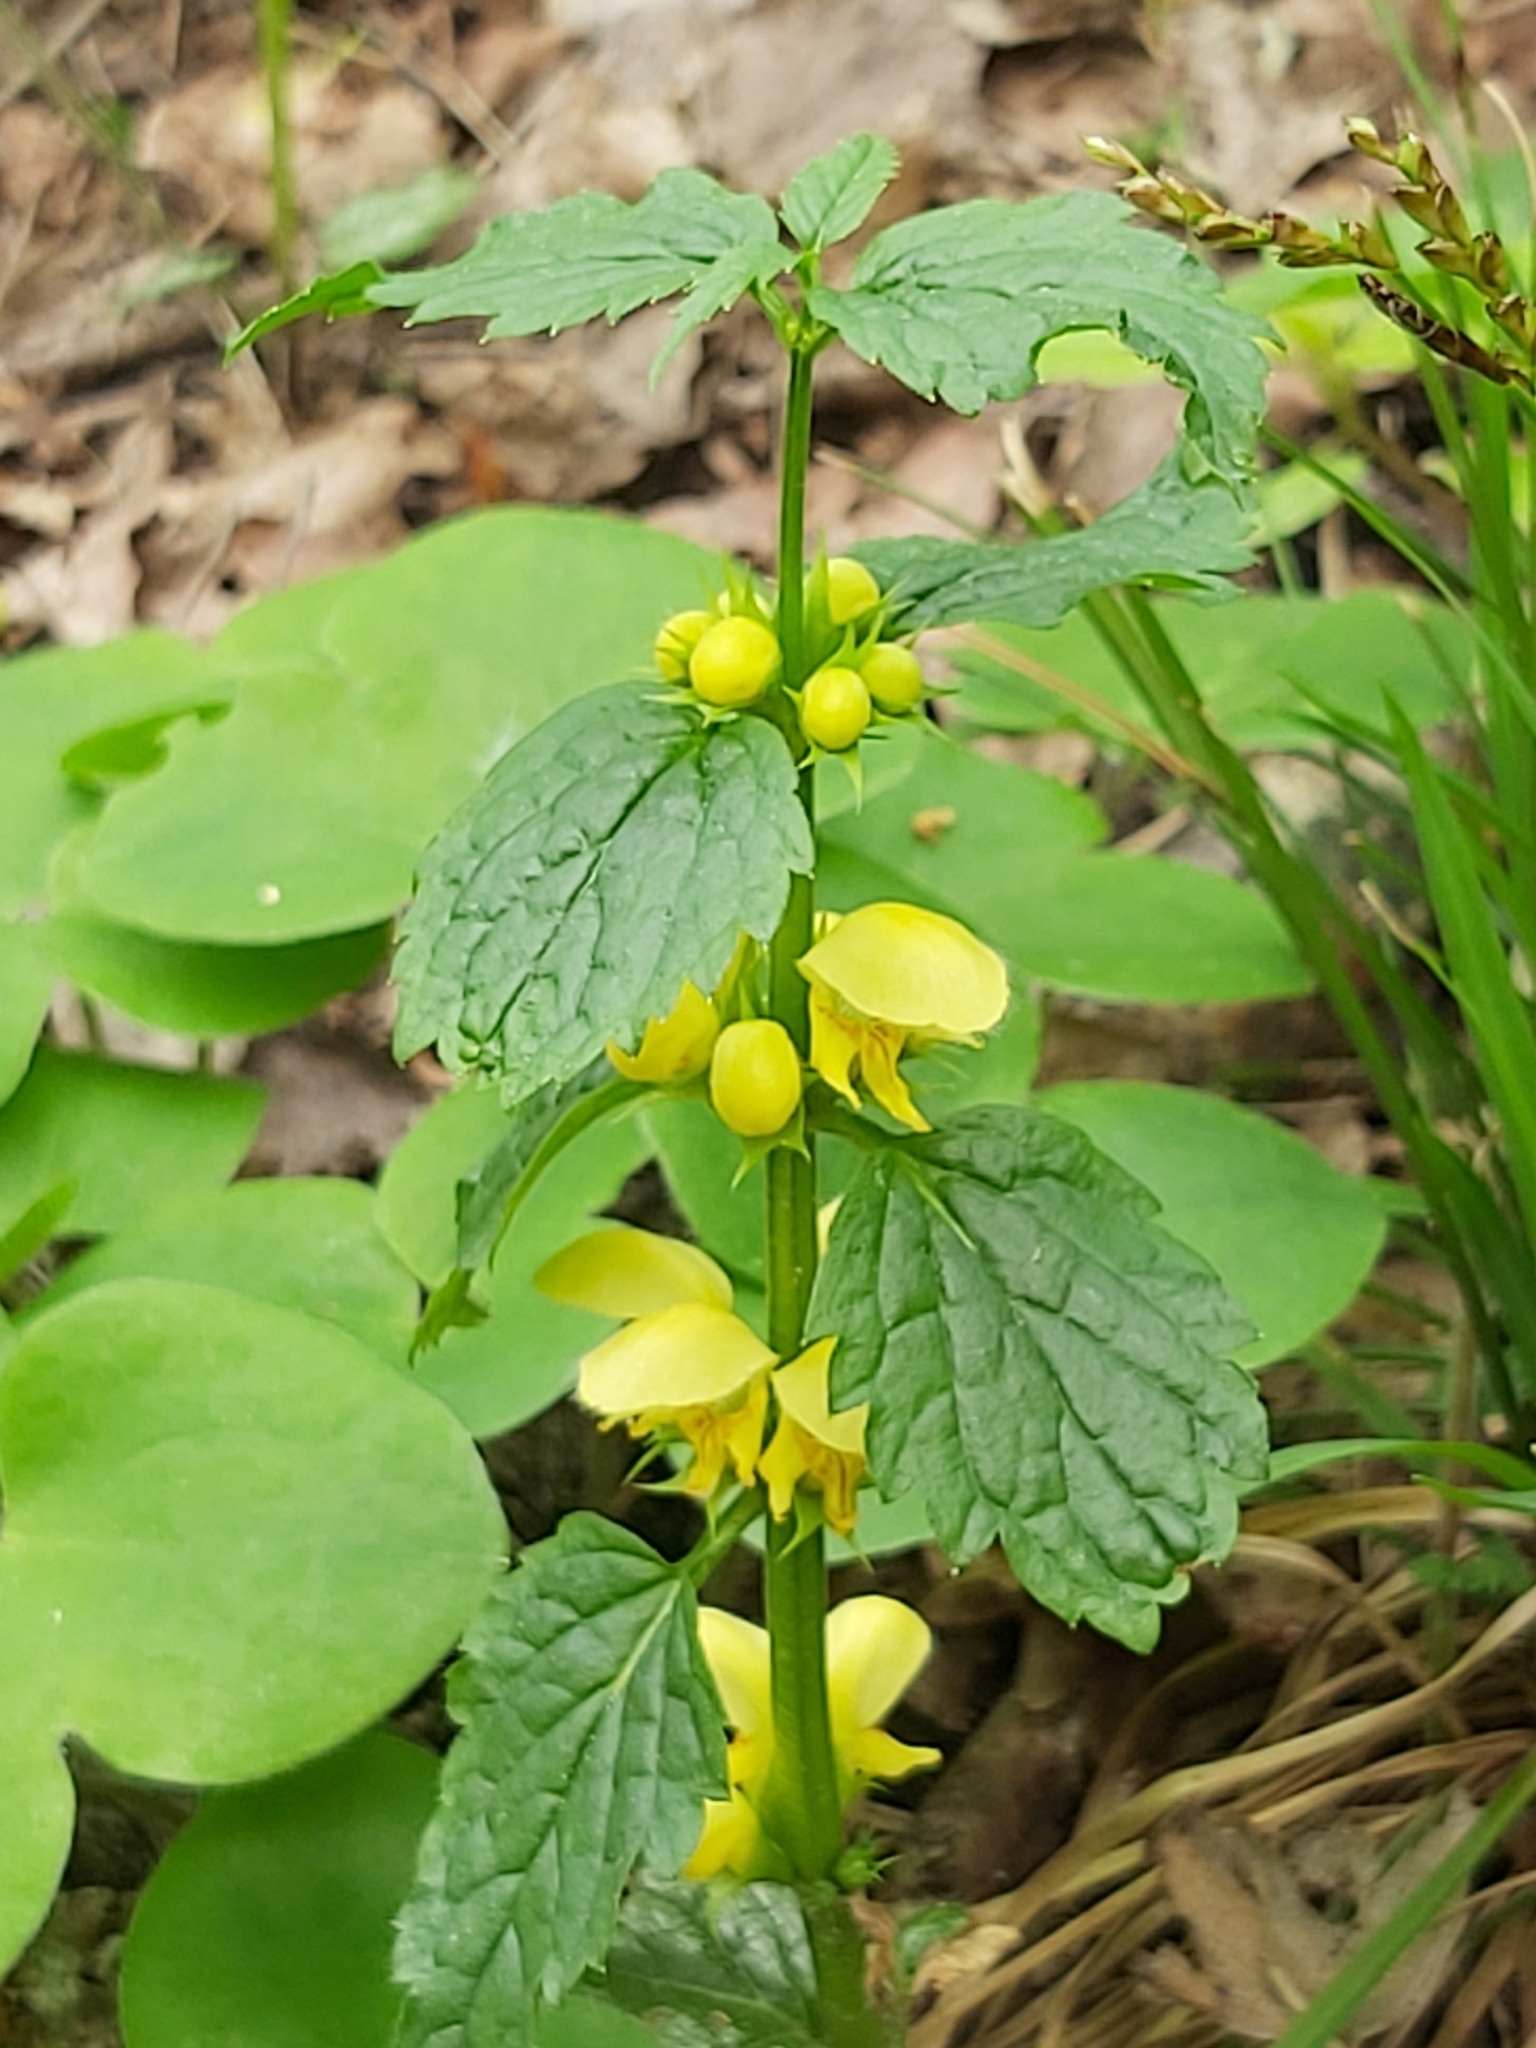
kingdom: Plantae
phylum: Tracheophyta
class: Magnoliopsida
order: Lamiales
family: Lamiaceae
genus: Lamium
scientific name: Lamium galeobdolon
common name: Yellow archangel
